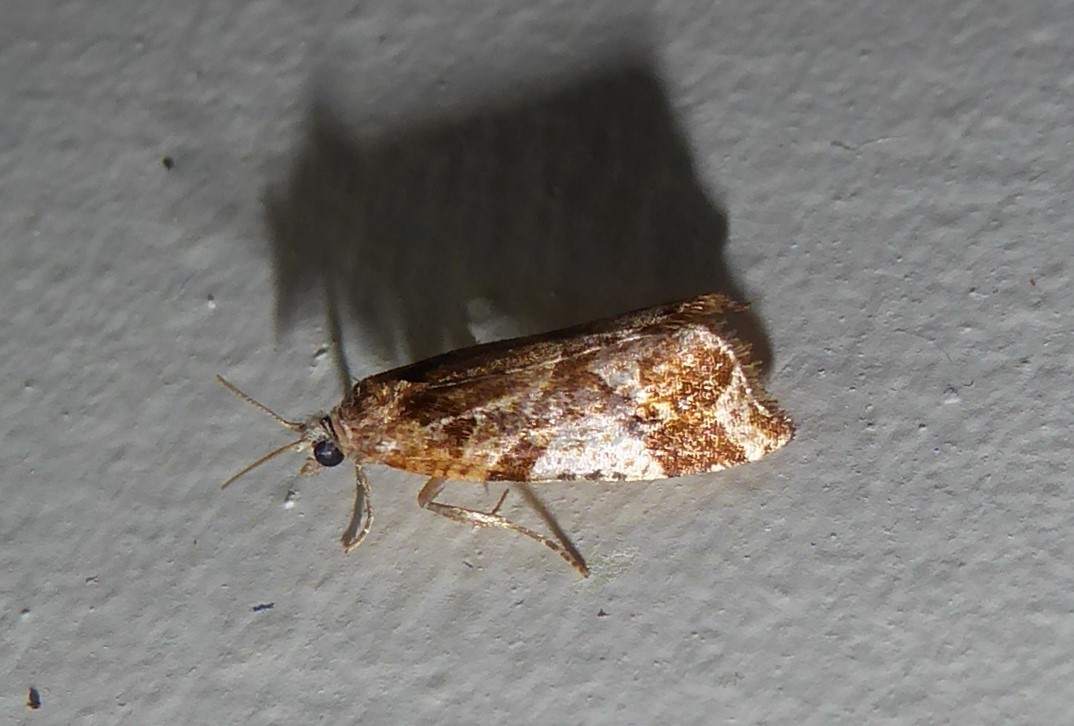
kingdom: Animalia
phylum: Arthropoda
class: Insecta
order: Lepidoptera
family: Tortricidae
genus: Pyrgotis
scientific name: Pyrgotis plagiatana
